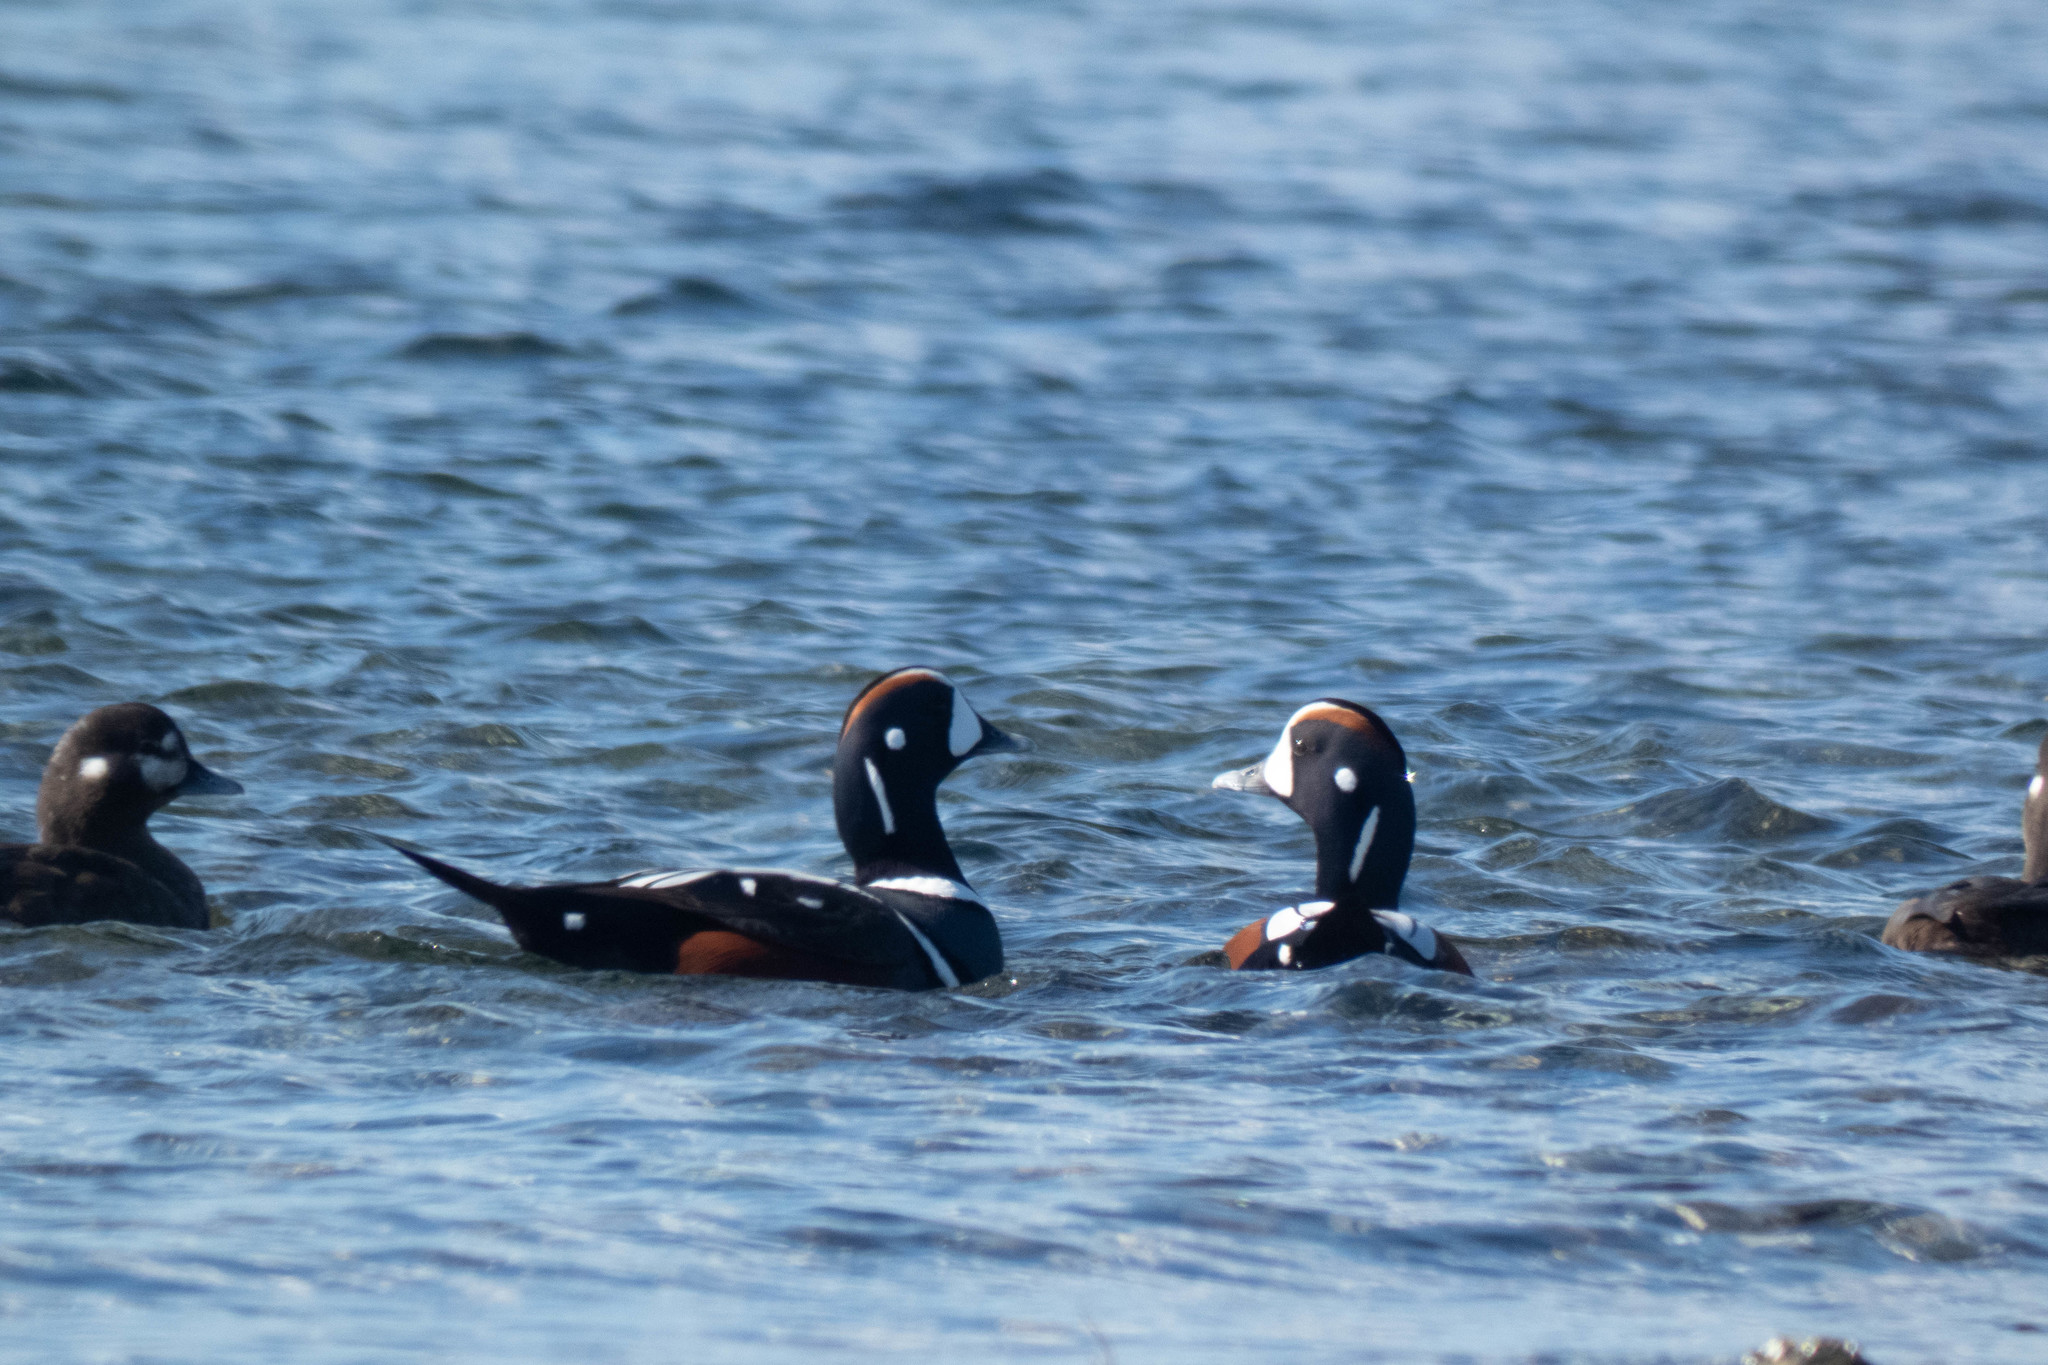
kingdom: Animalia
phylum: Chordata
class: Aves
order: Anseriformes
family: Anatidae
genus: Histrionicus
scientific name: Histrionicus histrionicus
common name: Harlequin duck
